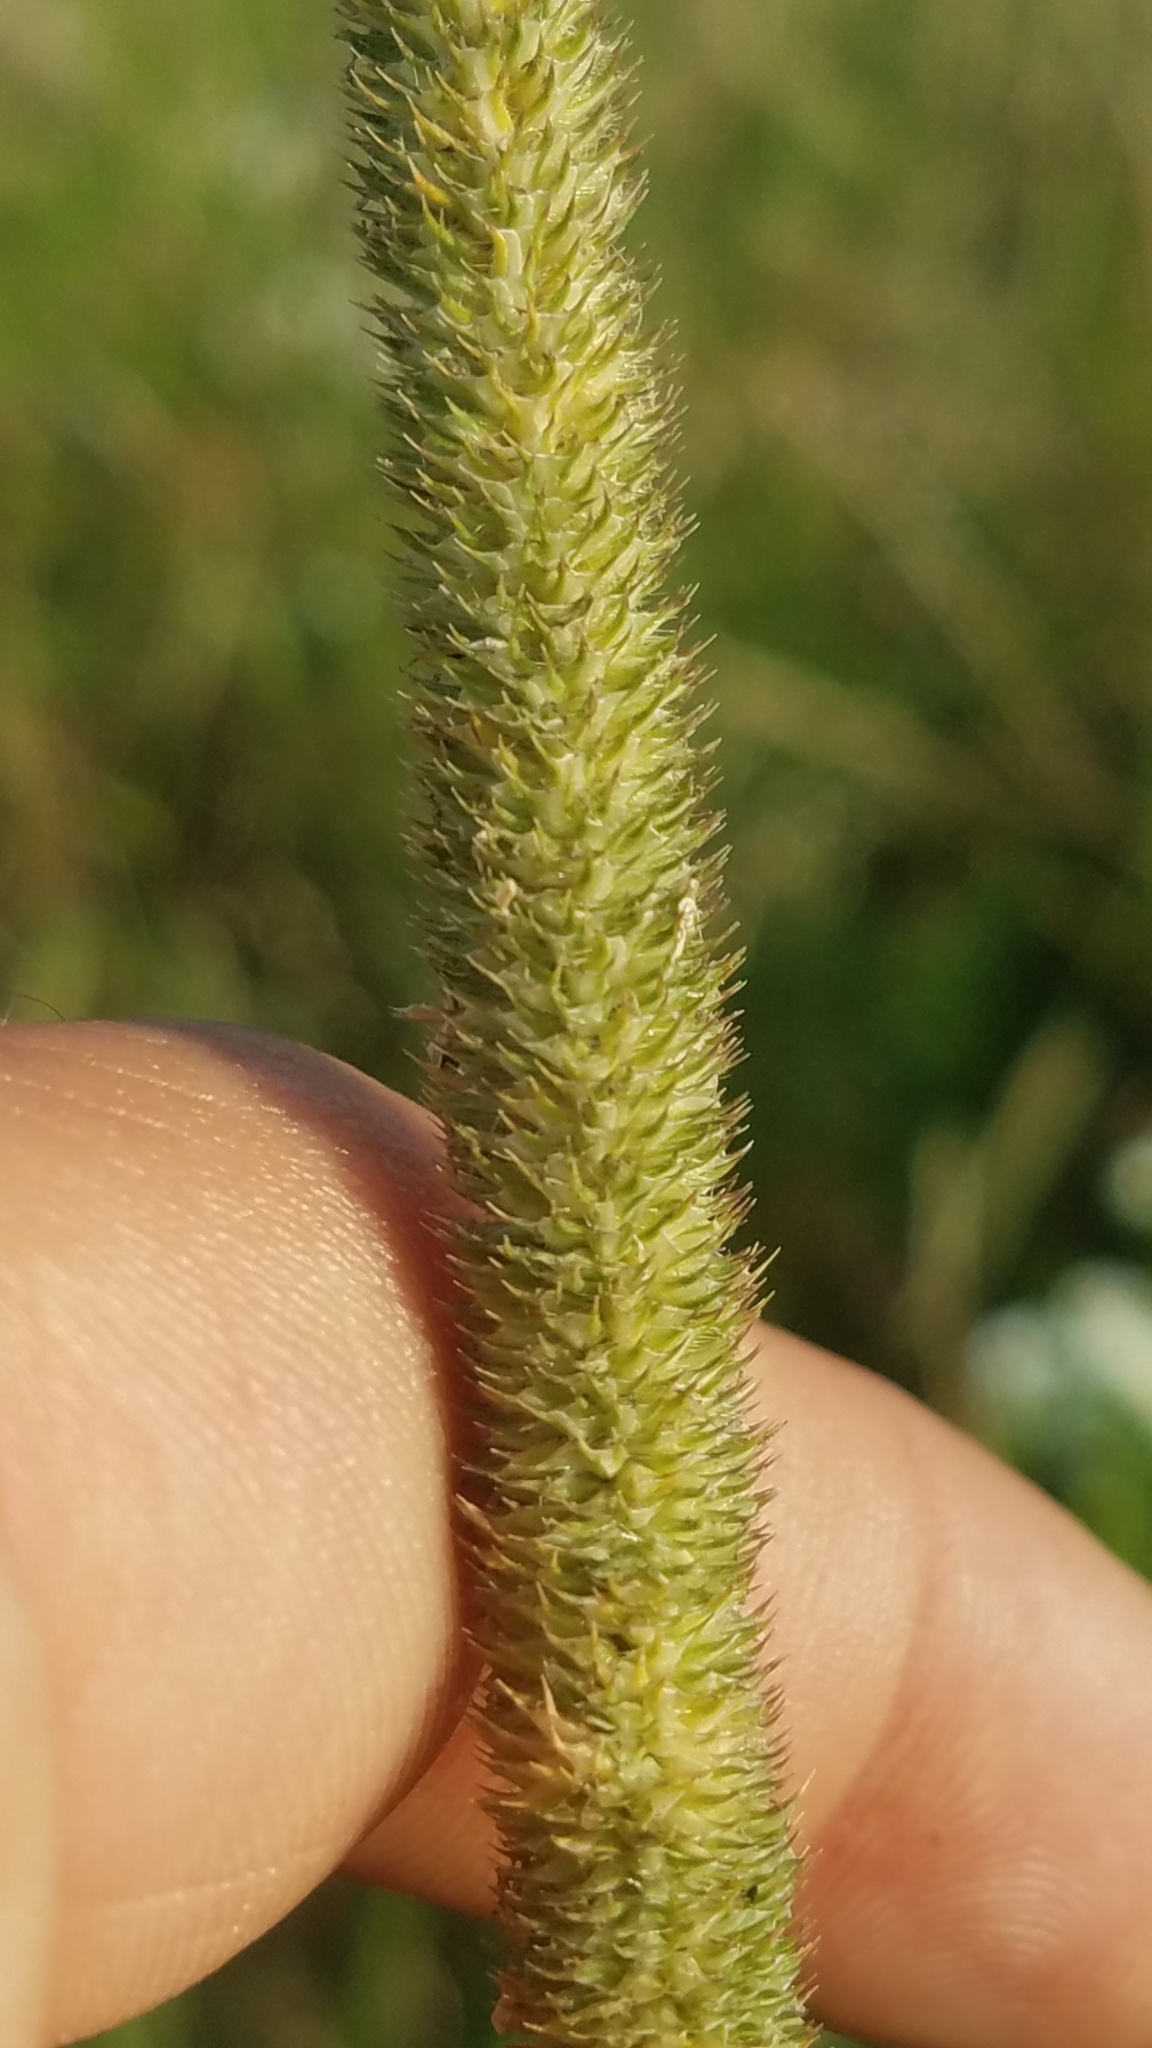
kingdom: Plantae
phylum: Tracheophyta
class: Liliopsida
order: Poales
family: Poaceae
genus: Phleum
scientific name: Phleum pratense
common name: Timothy grass
